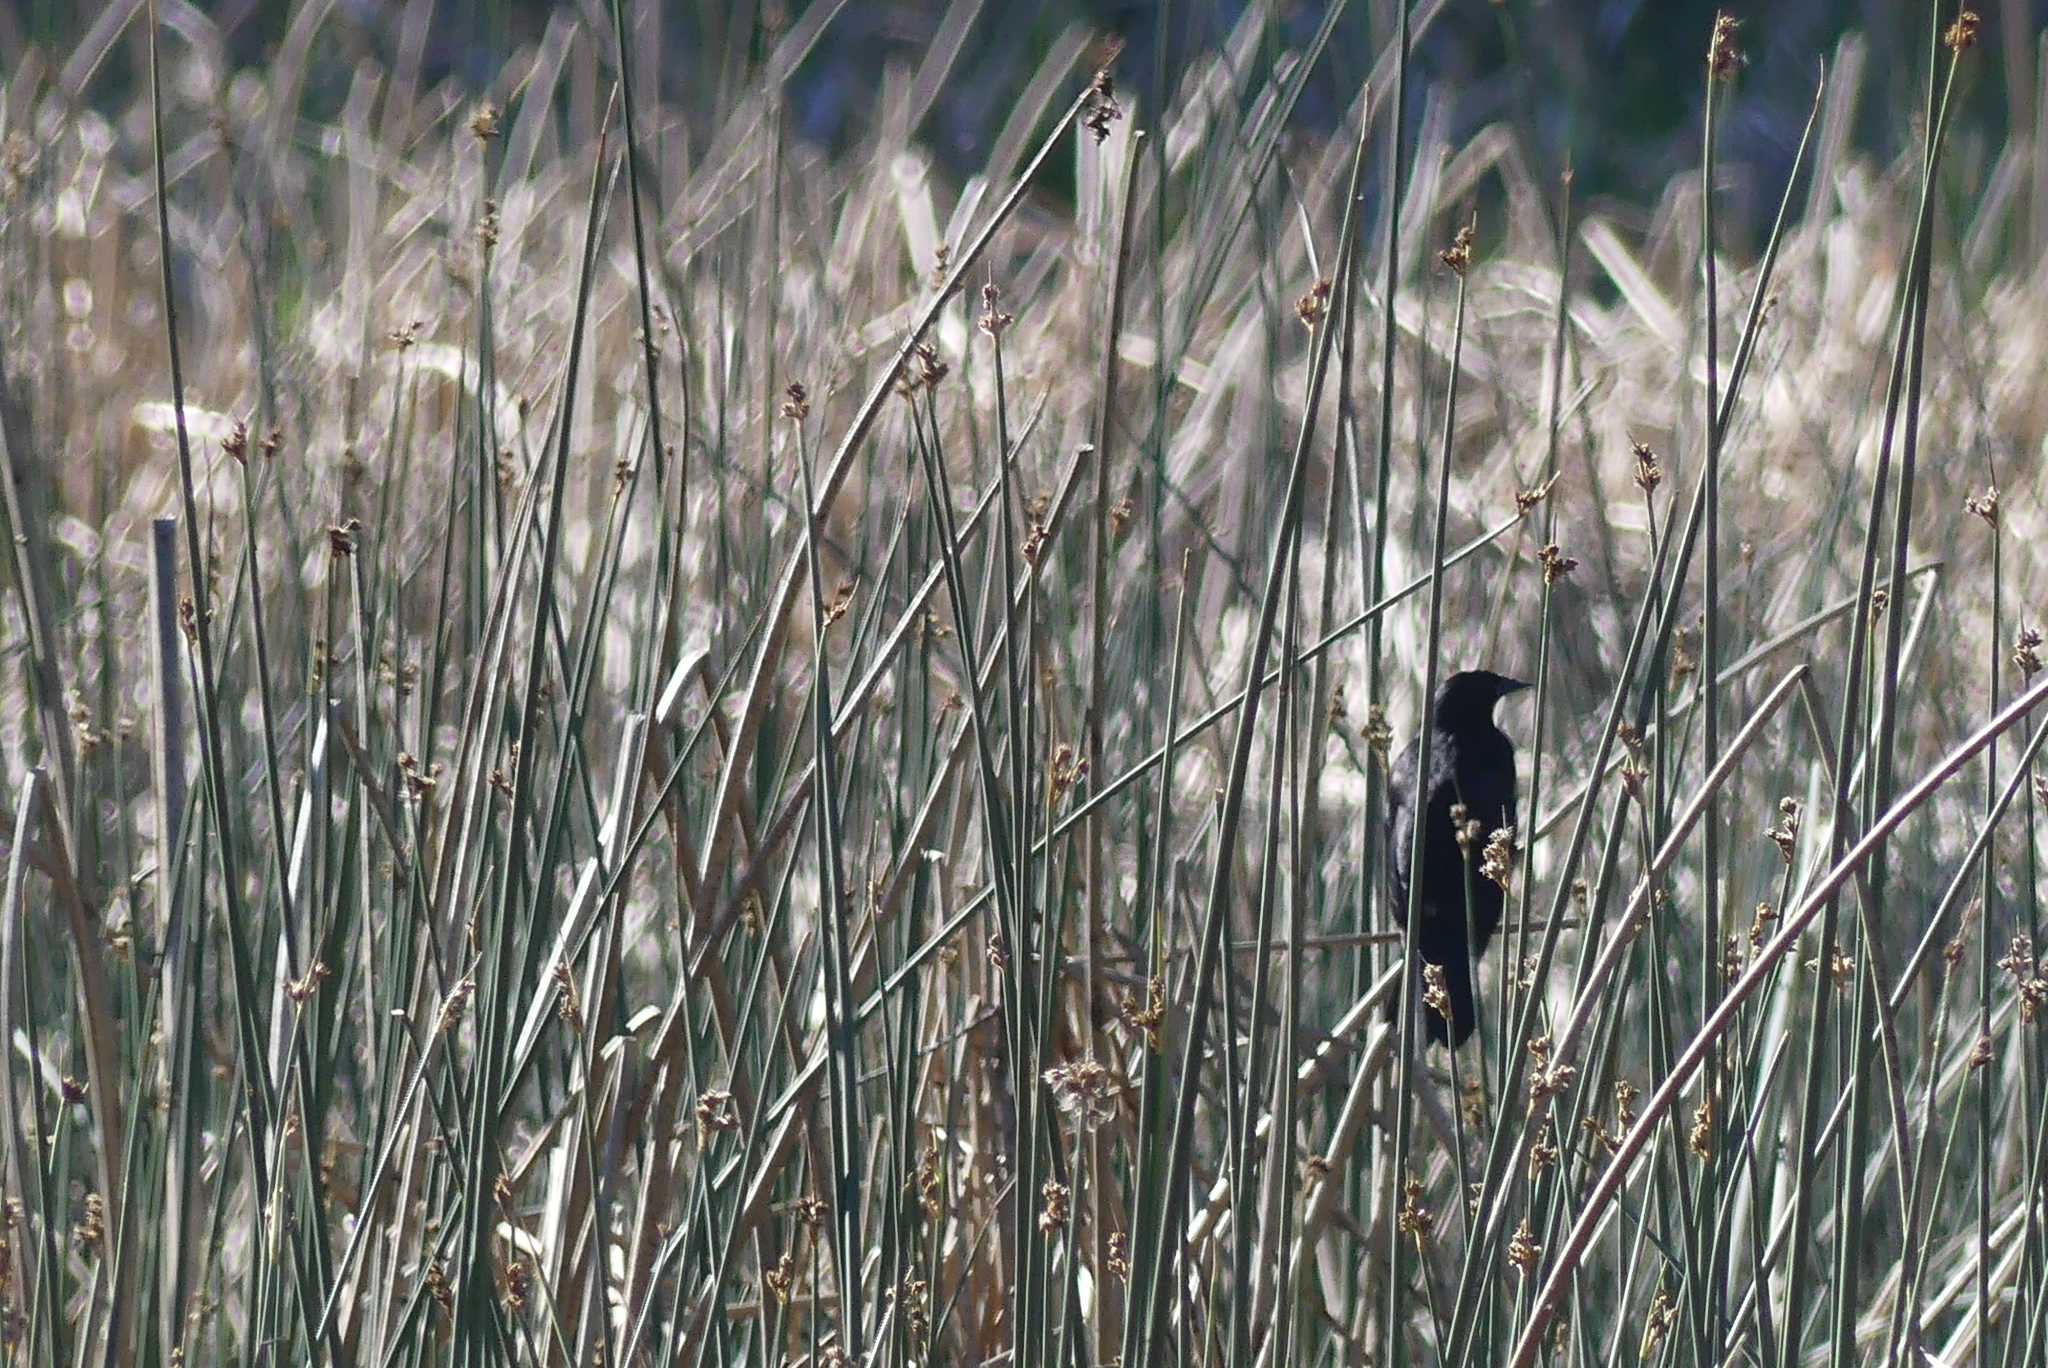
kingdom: Animalia
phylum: Chordata
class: Aves
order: Passeriformes
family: Icteridae
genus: Agelaius
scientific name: Agelaius phoeniceus
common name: Red-winged blackbird
